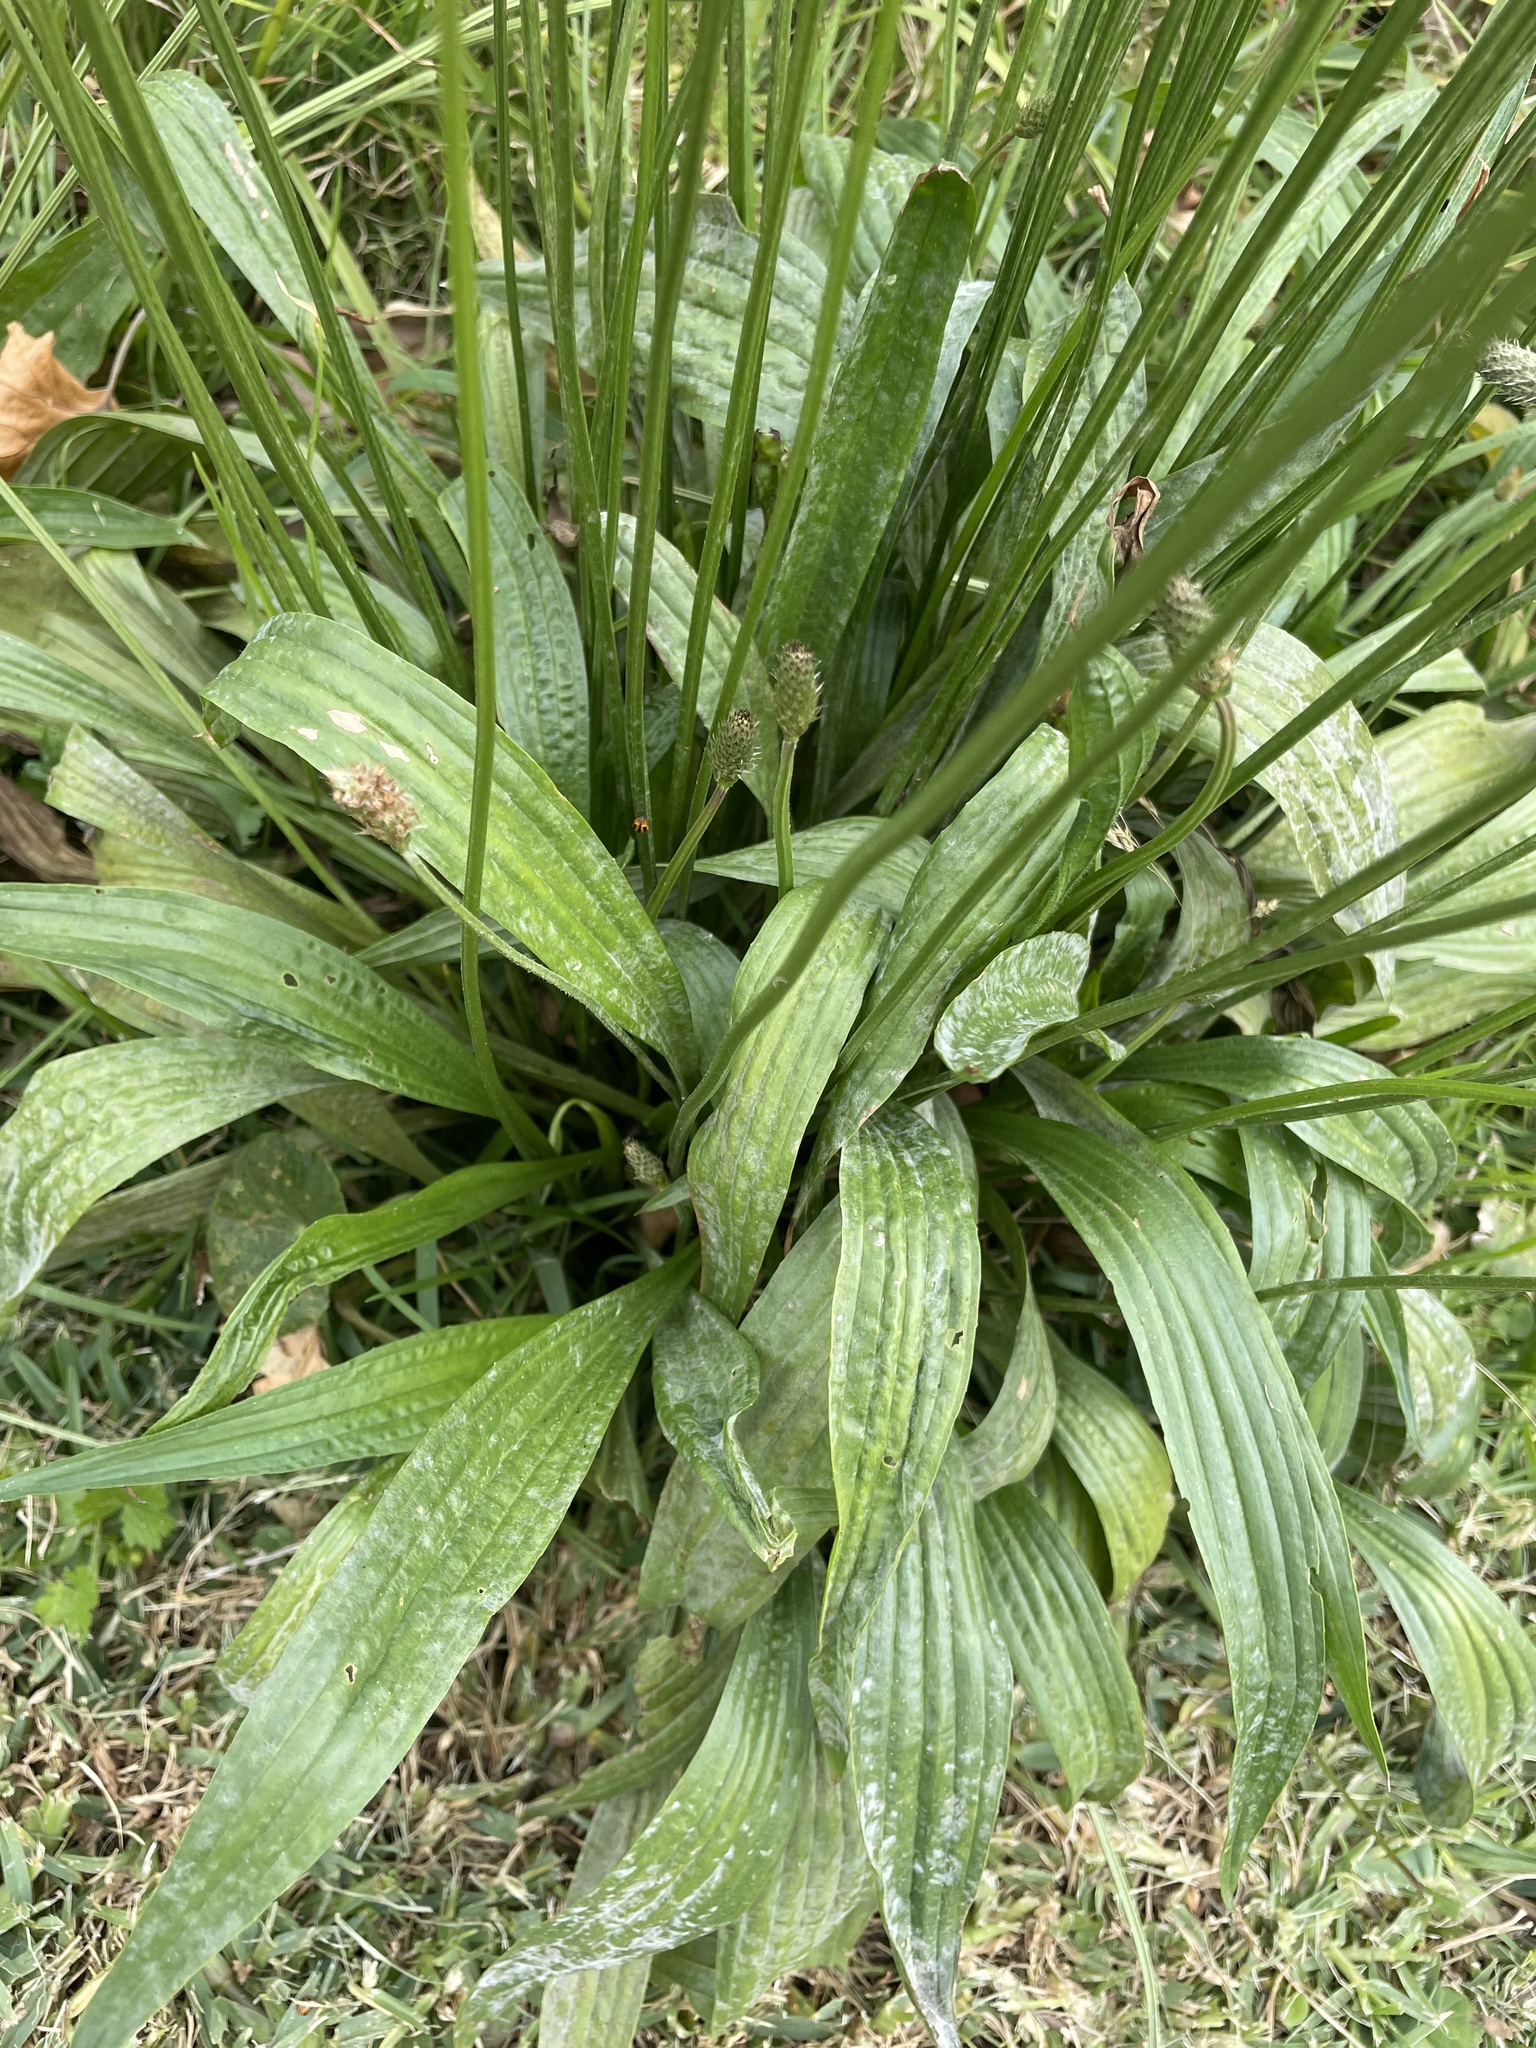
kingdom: Plantae
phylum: Tracheophyta
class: Magnoliopsida
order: Lamiales
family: Plantaginaceae
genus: Plantago
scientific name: Plantago lanceolata
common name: Ribwort plantain
